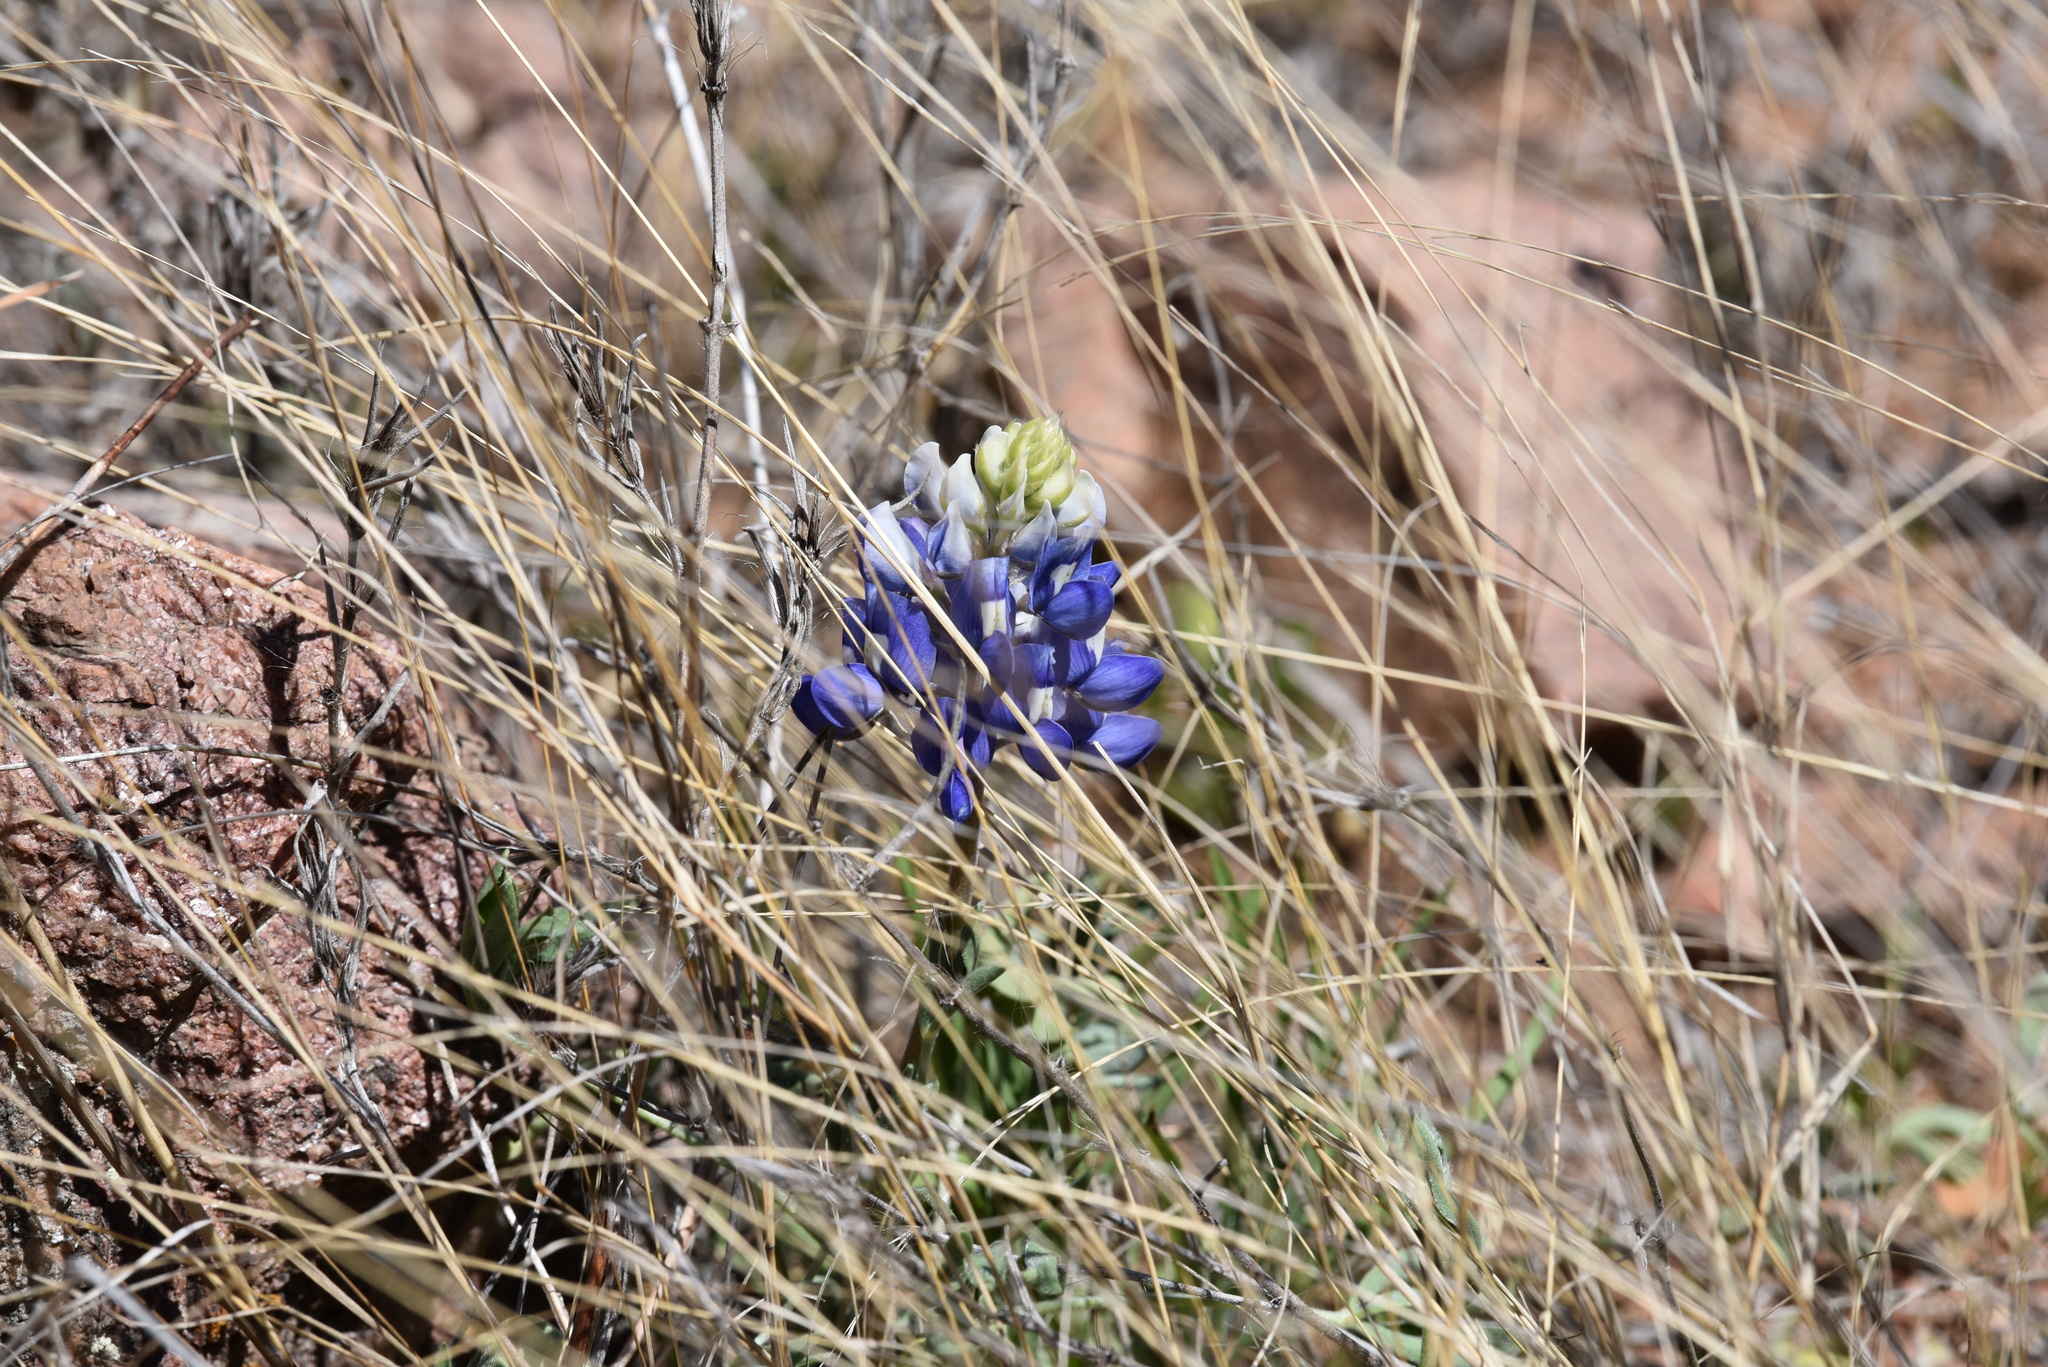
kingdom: Plantae
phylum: Tracheophyta
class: Magnoliopsida
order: Fabales
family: Fabaceae
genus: Lupinus
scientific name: Lupinus texensis
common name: Texas bluebonnet
